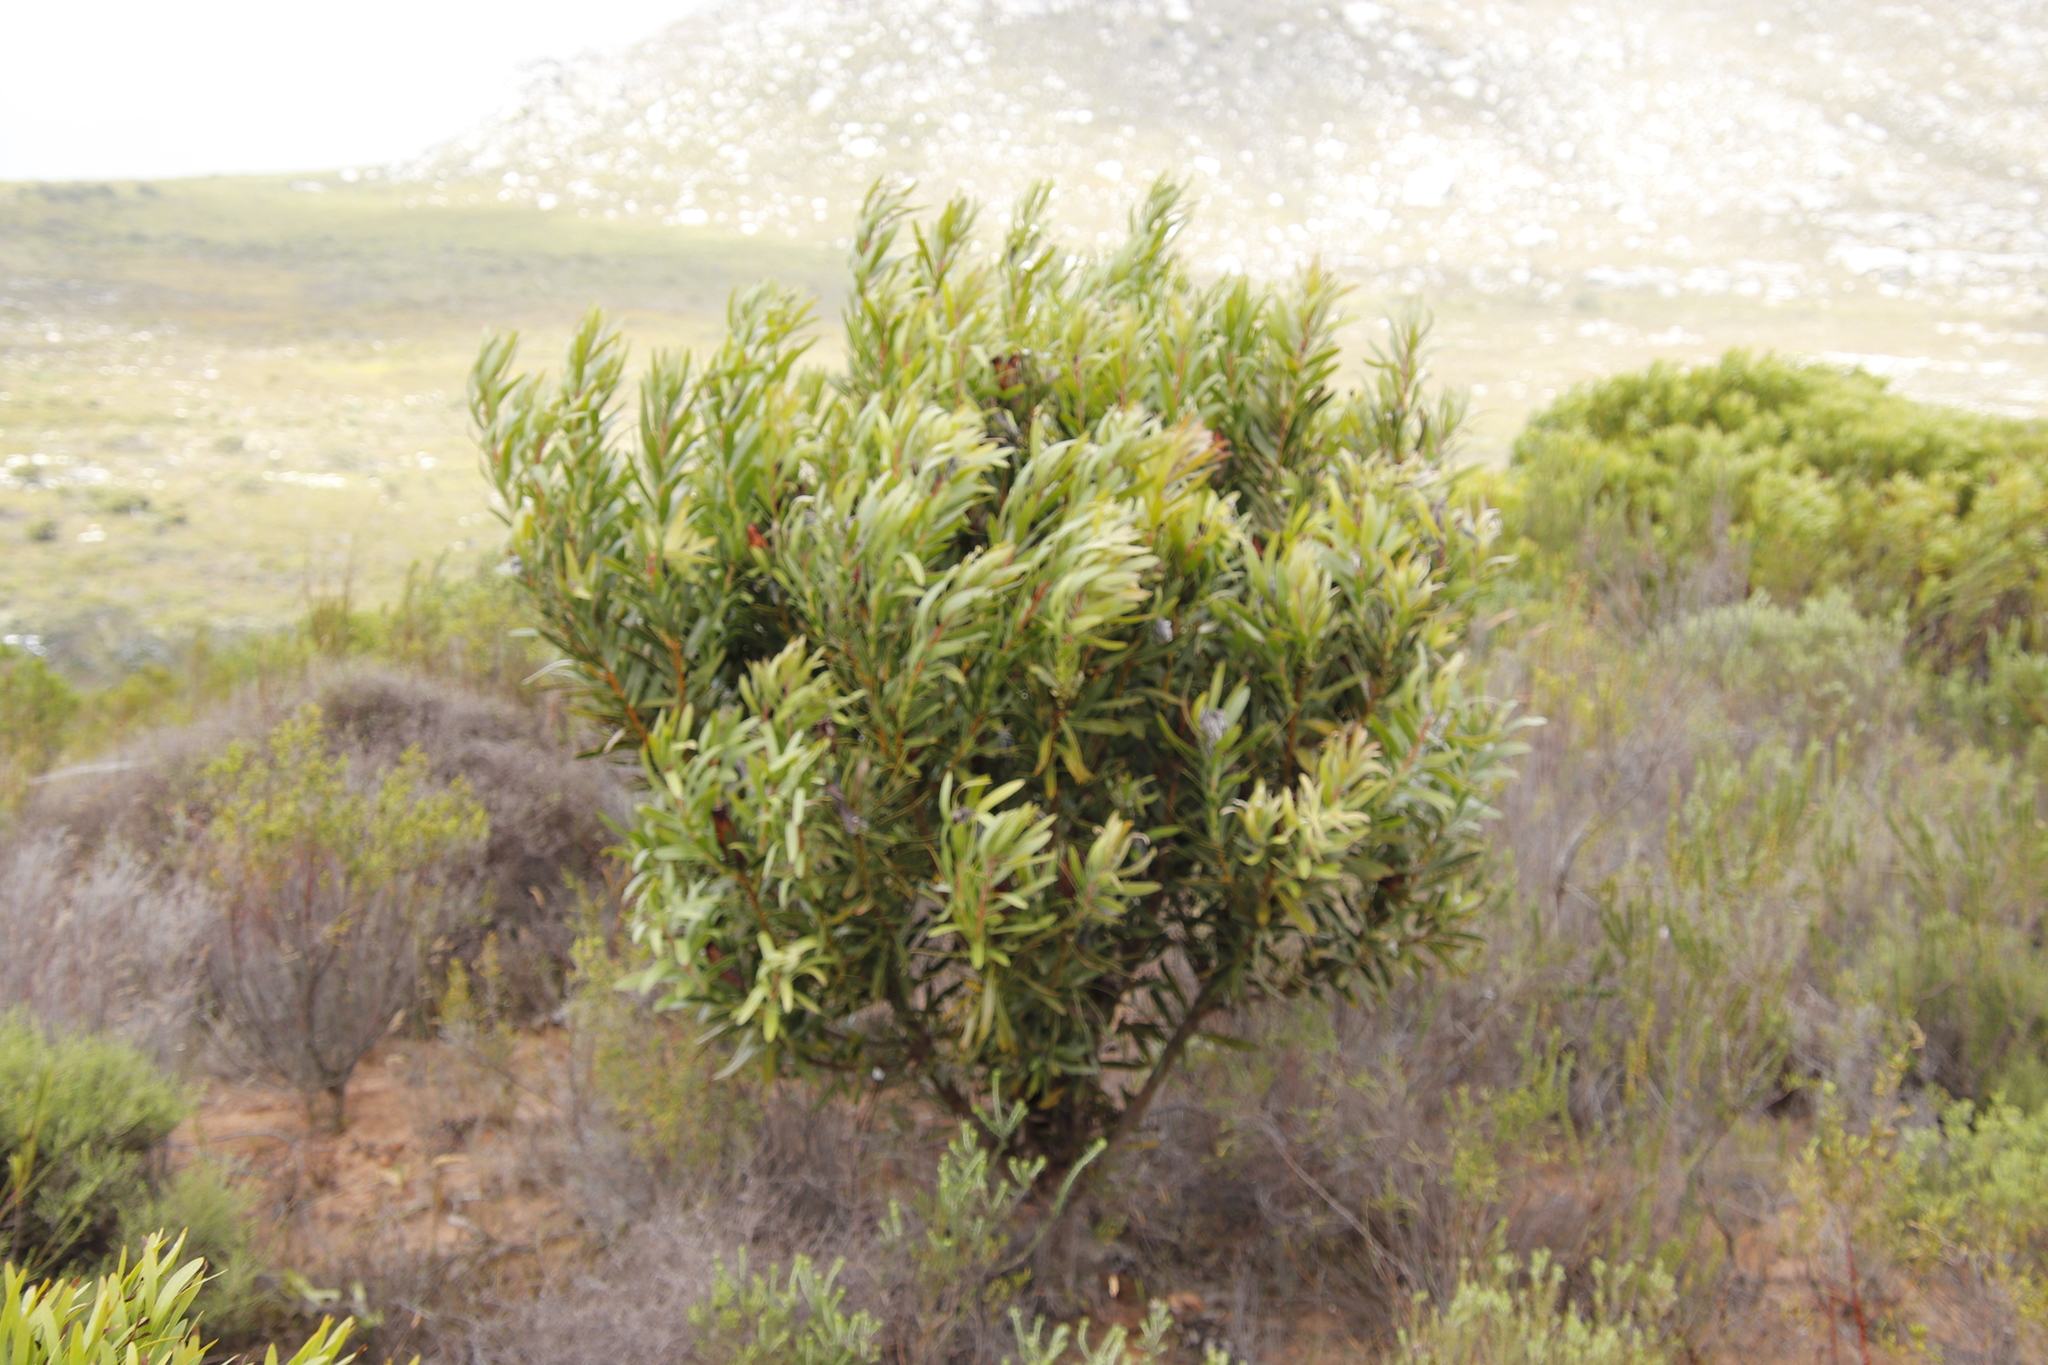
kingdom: Plantae
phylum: Tracheophyta
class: Magnoliopsida
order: Proteales
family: Proteaceae
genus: Protea
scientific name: Protea lepidocarpodendron
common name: Black-bearded protea
